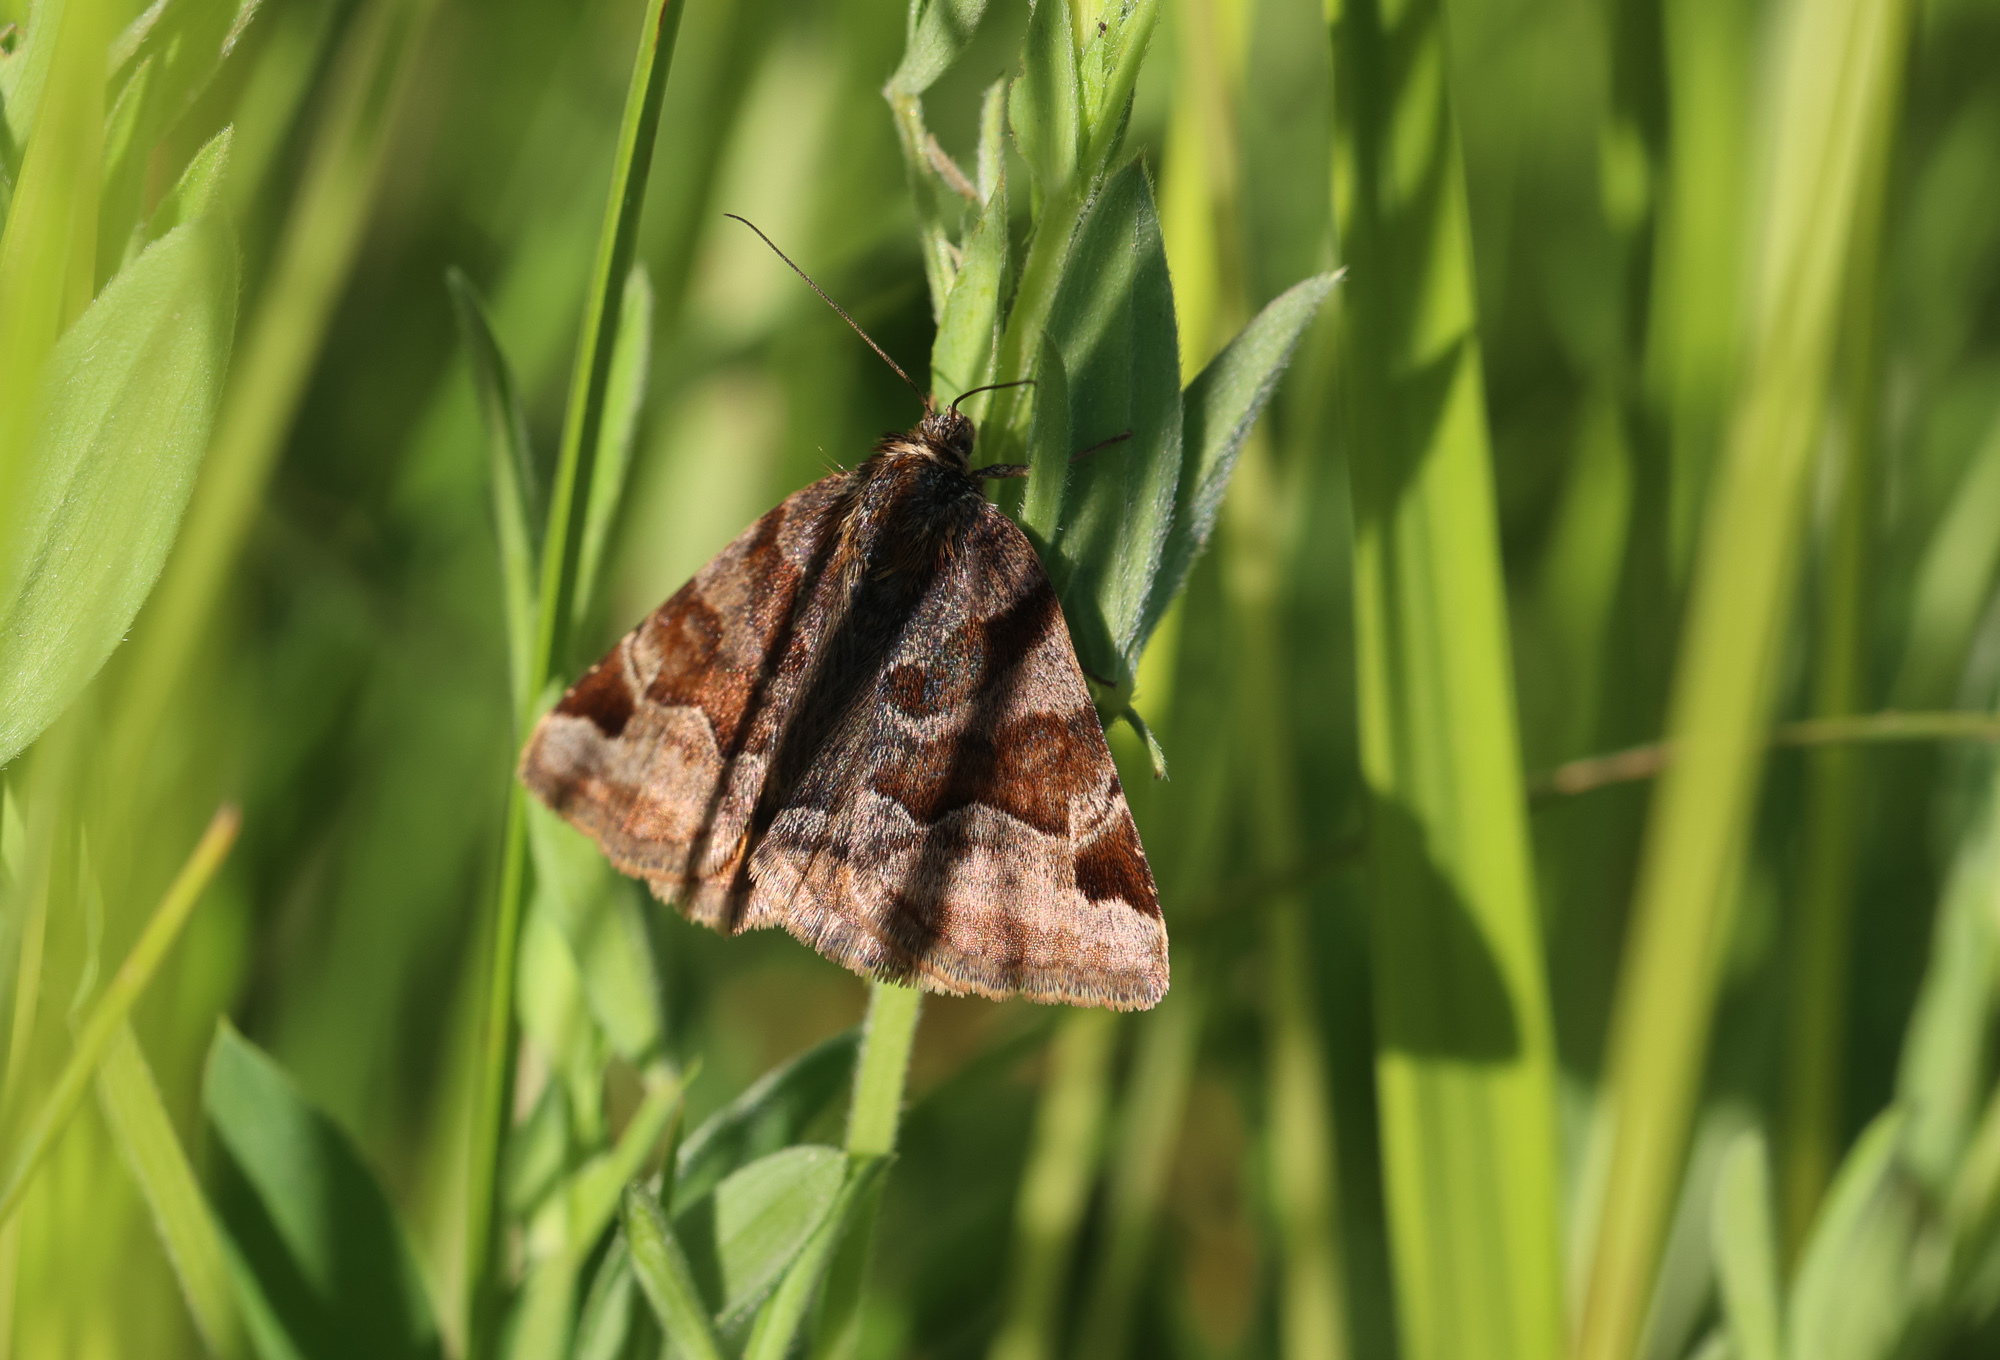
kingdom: Animalia
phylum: Arthropoda
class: Insecta
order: Lepidoptera
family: Erebidae
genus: Euclidia
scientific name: Euclidia glyphica
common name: Burnet companion
